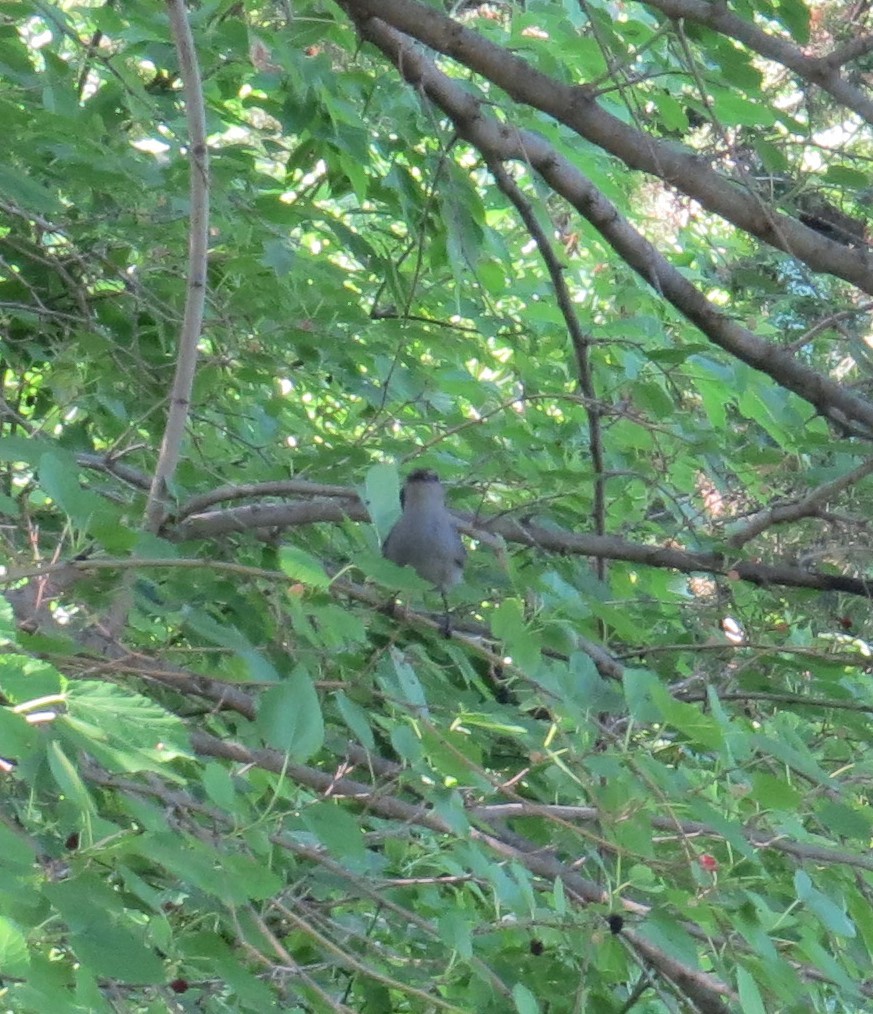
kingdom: Animalia
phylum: Chordata
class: Aves
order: Passeriformes
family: Mimidae
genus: Dumetella
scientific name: Dumetella carolinensis
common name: Gray catbird
